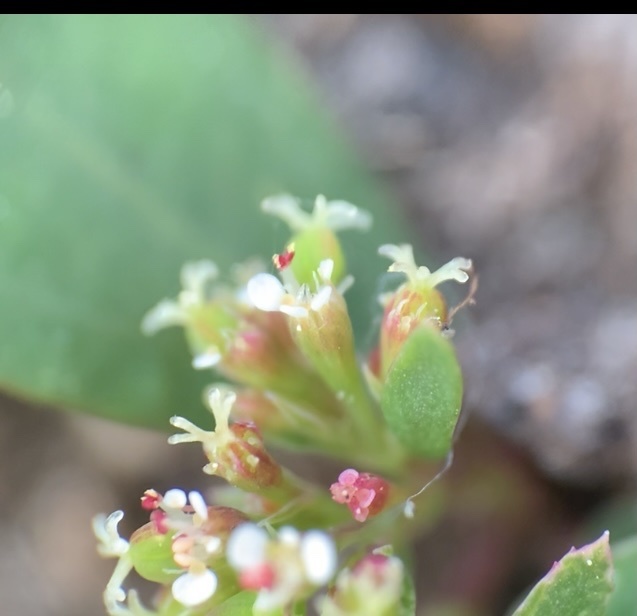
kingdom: Plantae
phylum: Tracheophyta
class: Magnoliopsida
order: Malpighiales
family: Euphorbiaceae
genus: Euphorbia
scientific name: Euphorbia hypericifolia
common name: Graceful sandmat
